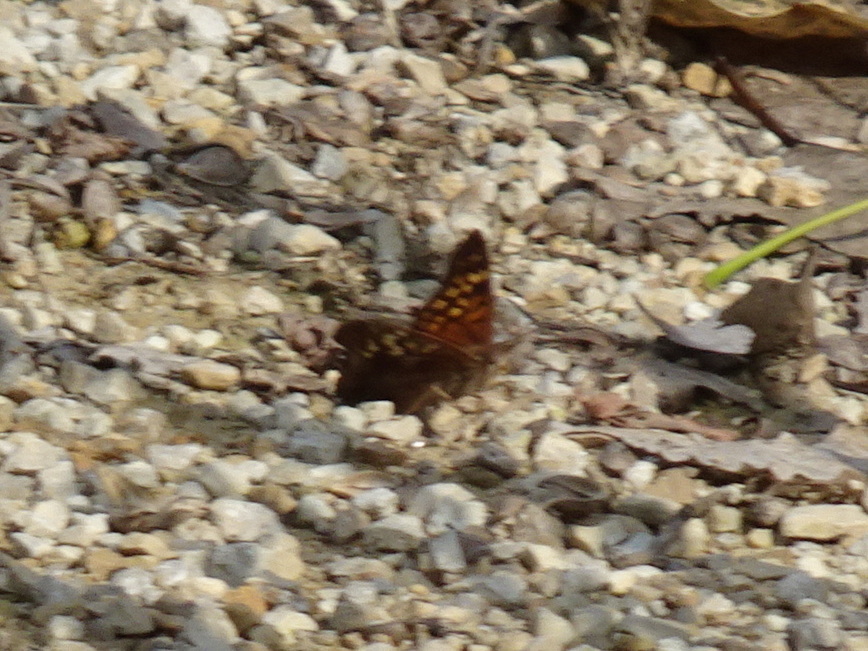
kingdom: Animalia
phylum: Arthropoda
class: Insecta
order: Lepidoptera
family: Nymphalidae
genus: Asterocampa
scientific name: Asterocampa clyton
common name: Tawny emperor
